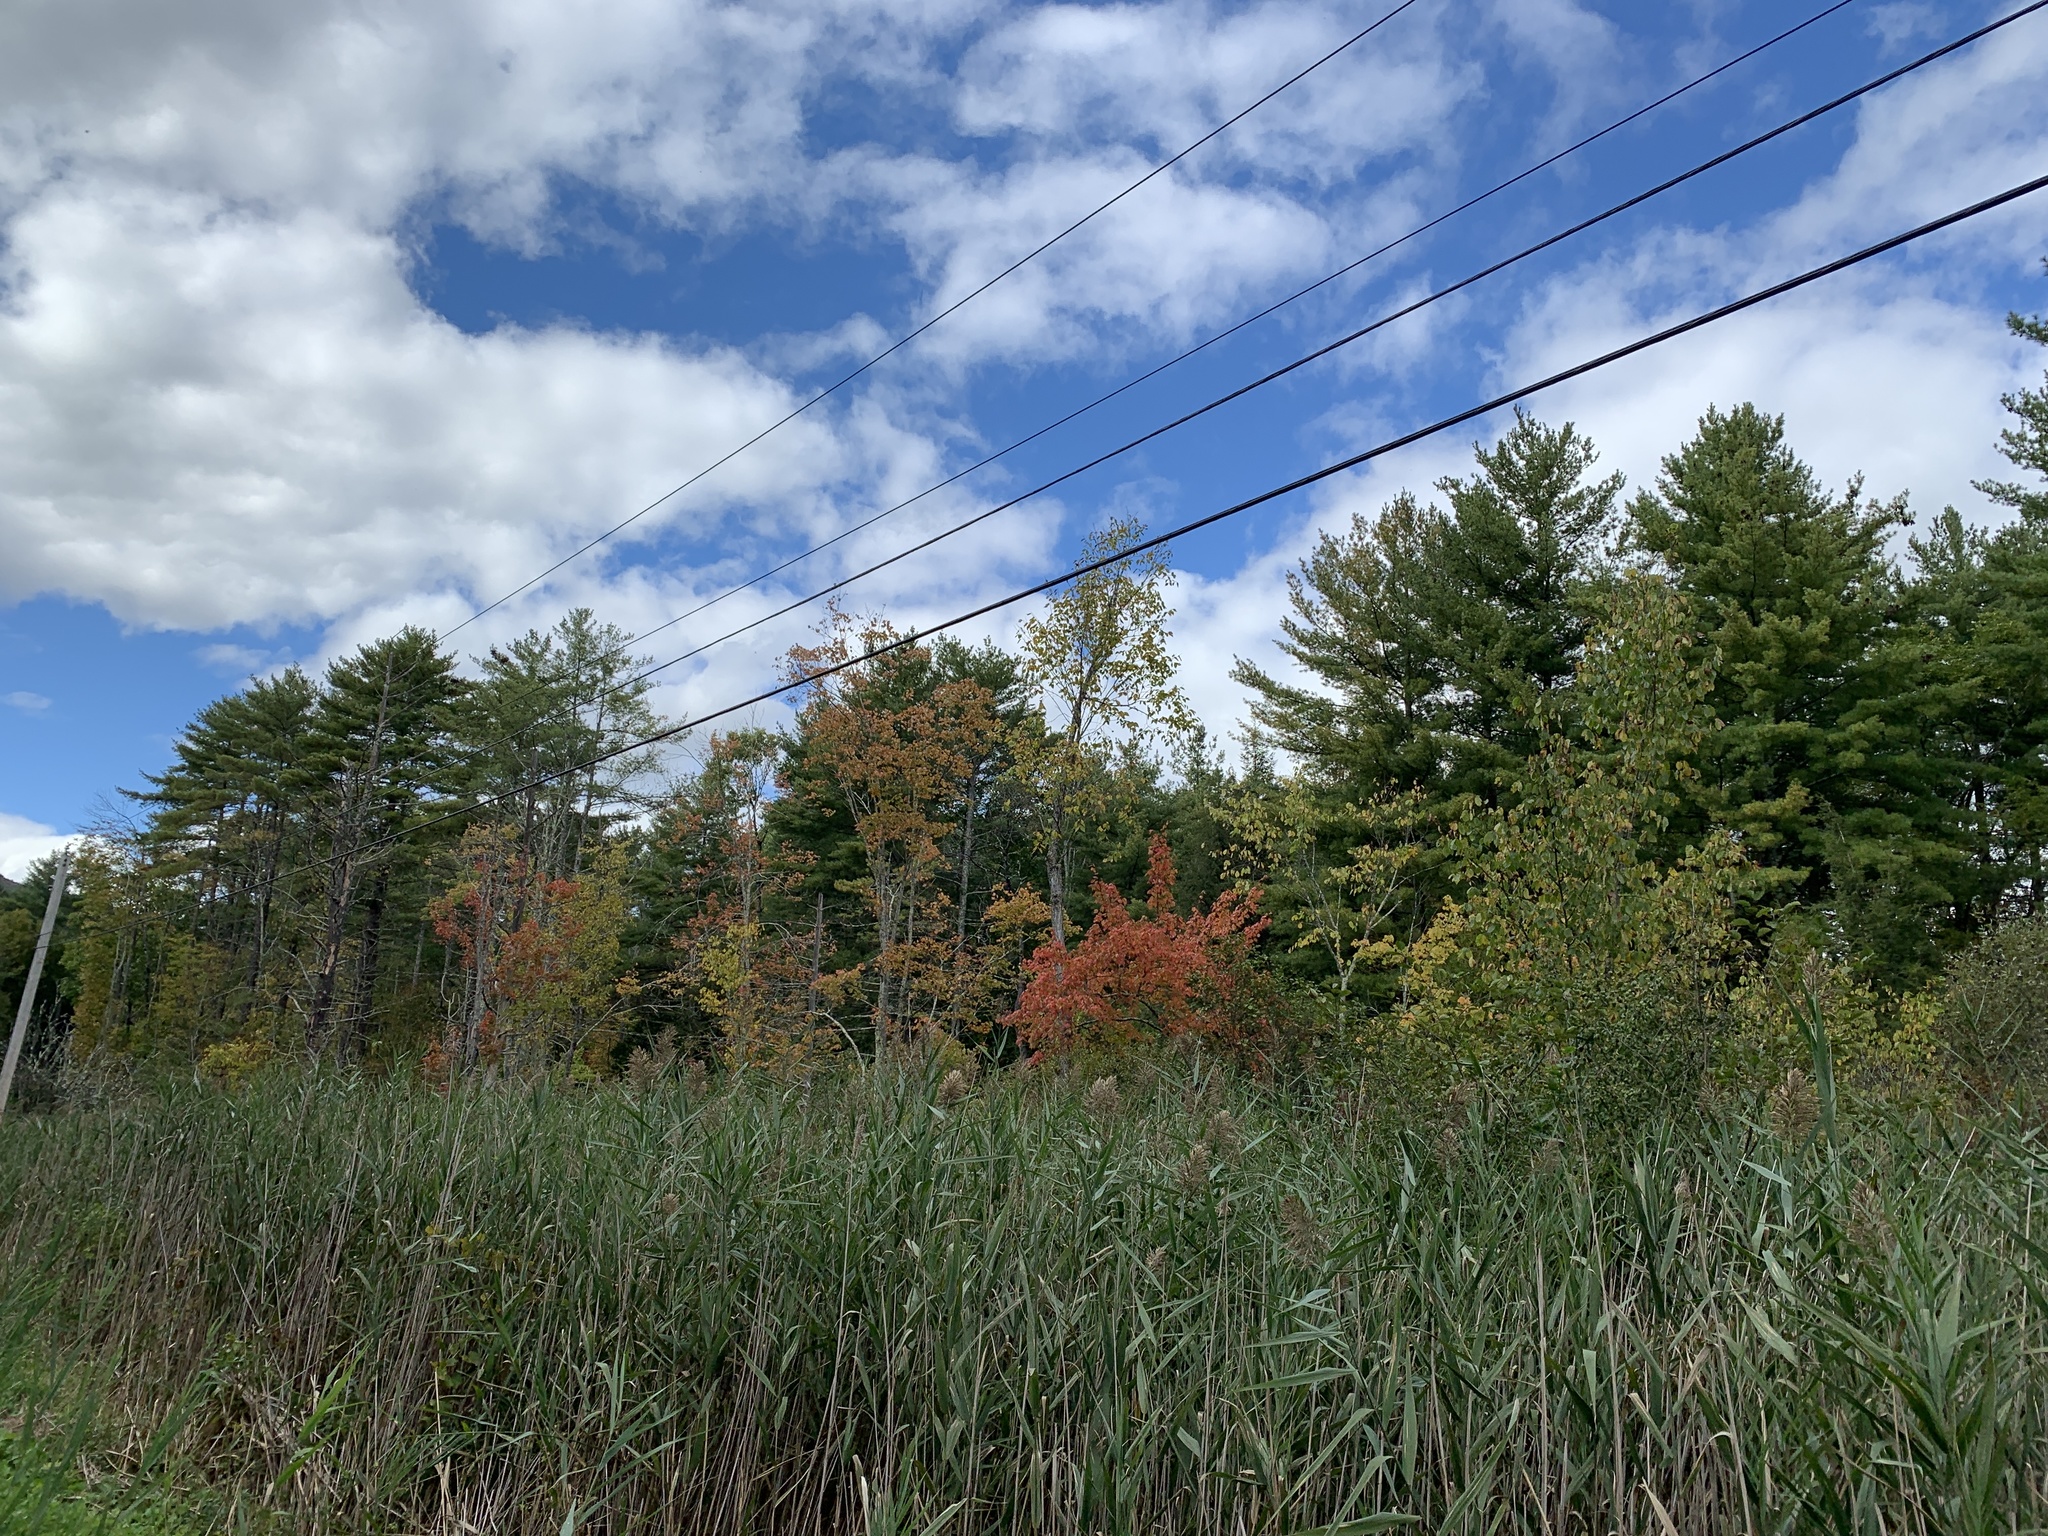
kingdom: Plantae
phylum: Tracheophyta
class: Magnoliopsida
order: Sapindales
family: Sapindaceae
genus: Acer
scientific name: Acer rubrum
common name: Red maple
